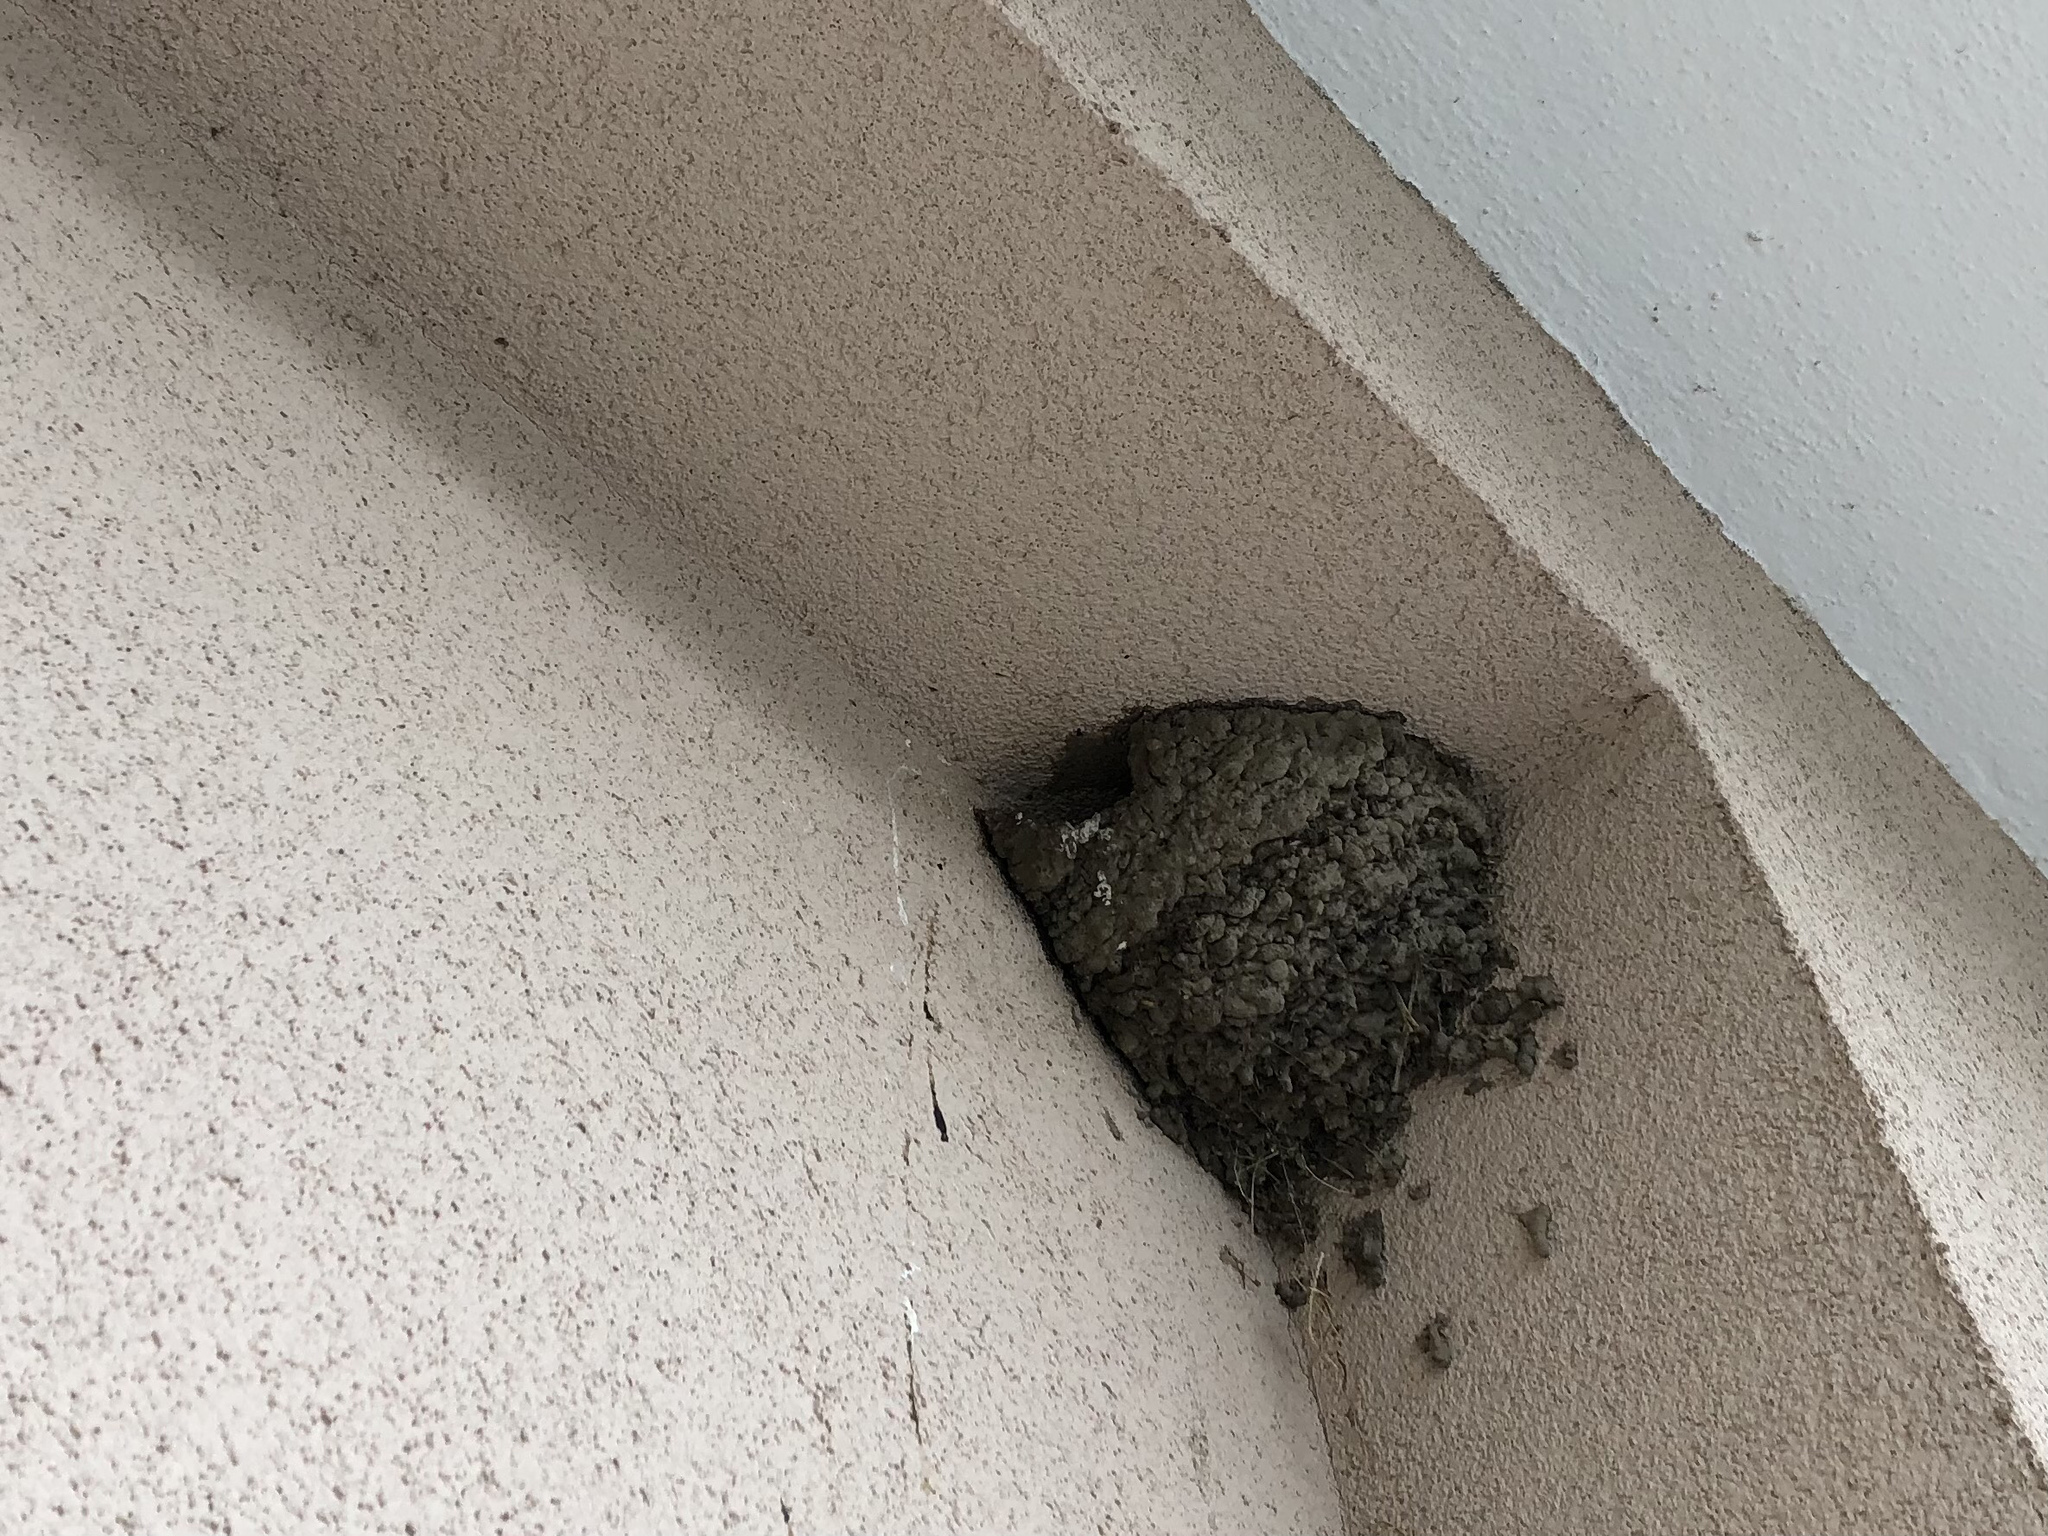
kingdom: Animalia
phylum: Chordata
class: Aves
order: Passeriformes
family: Hirundinidae
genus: Delichon
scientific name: Delichon urbicum
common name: Common house martin
